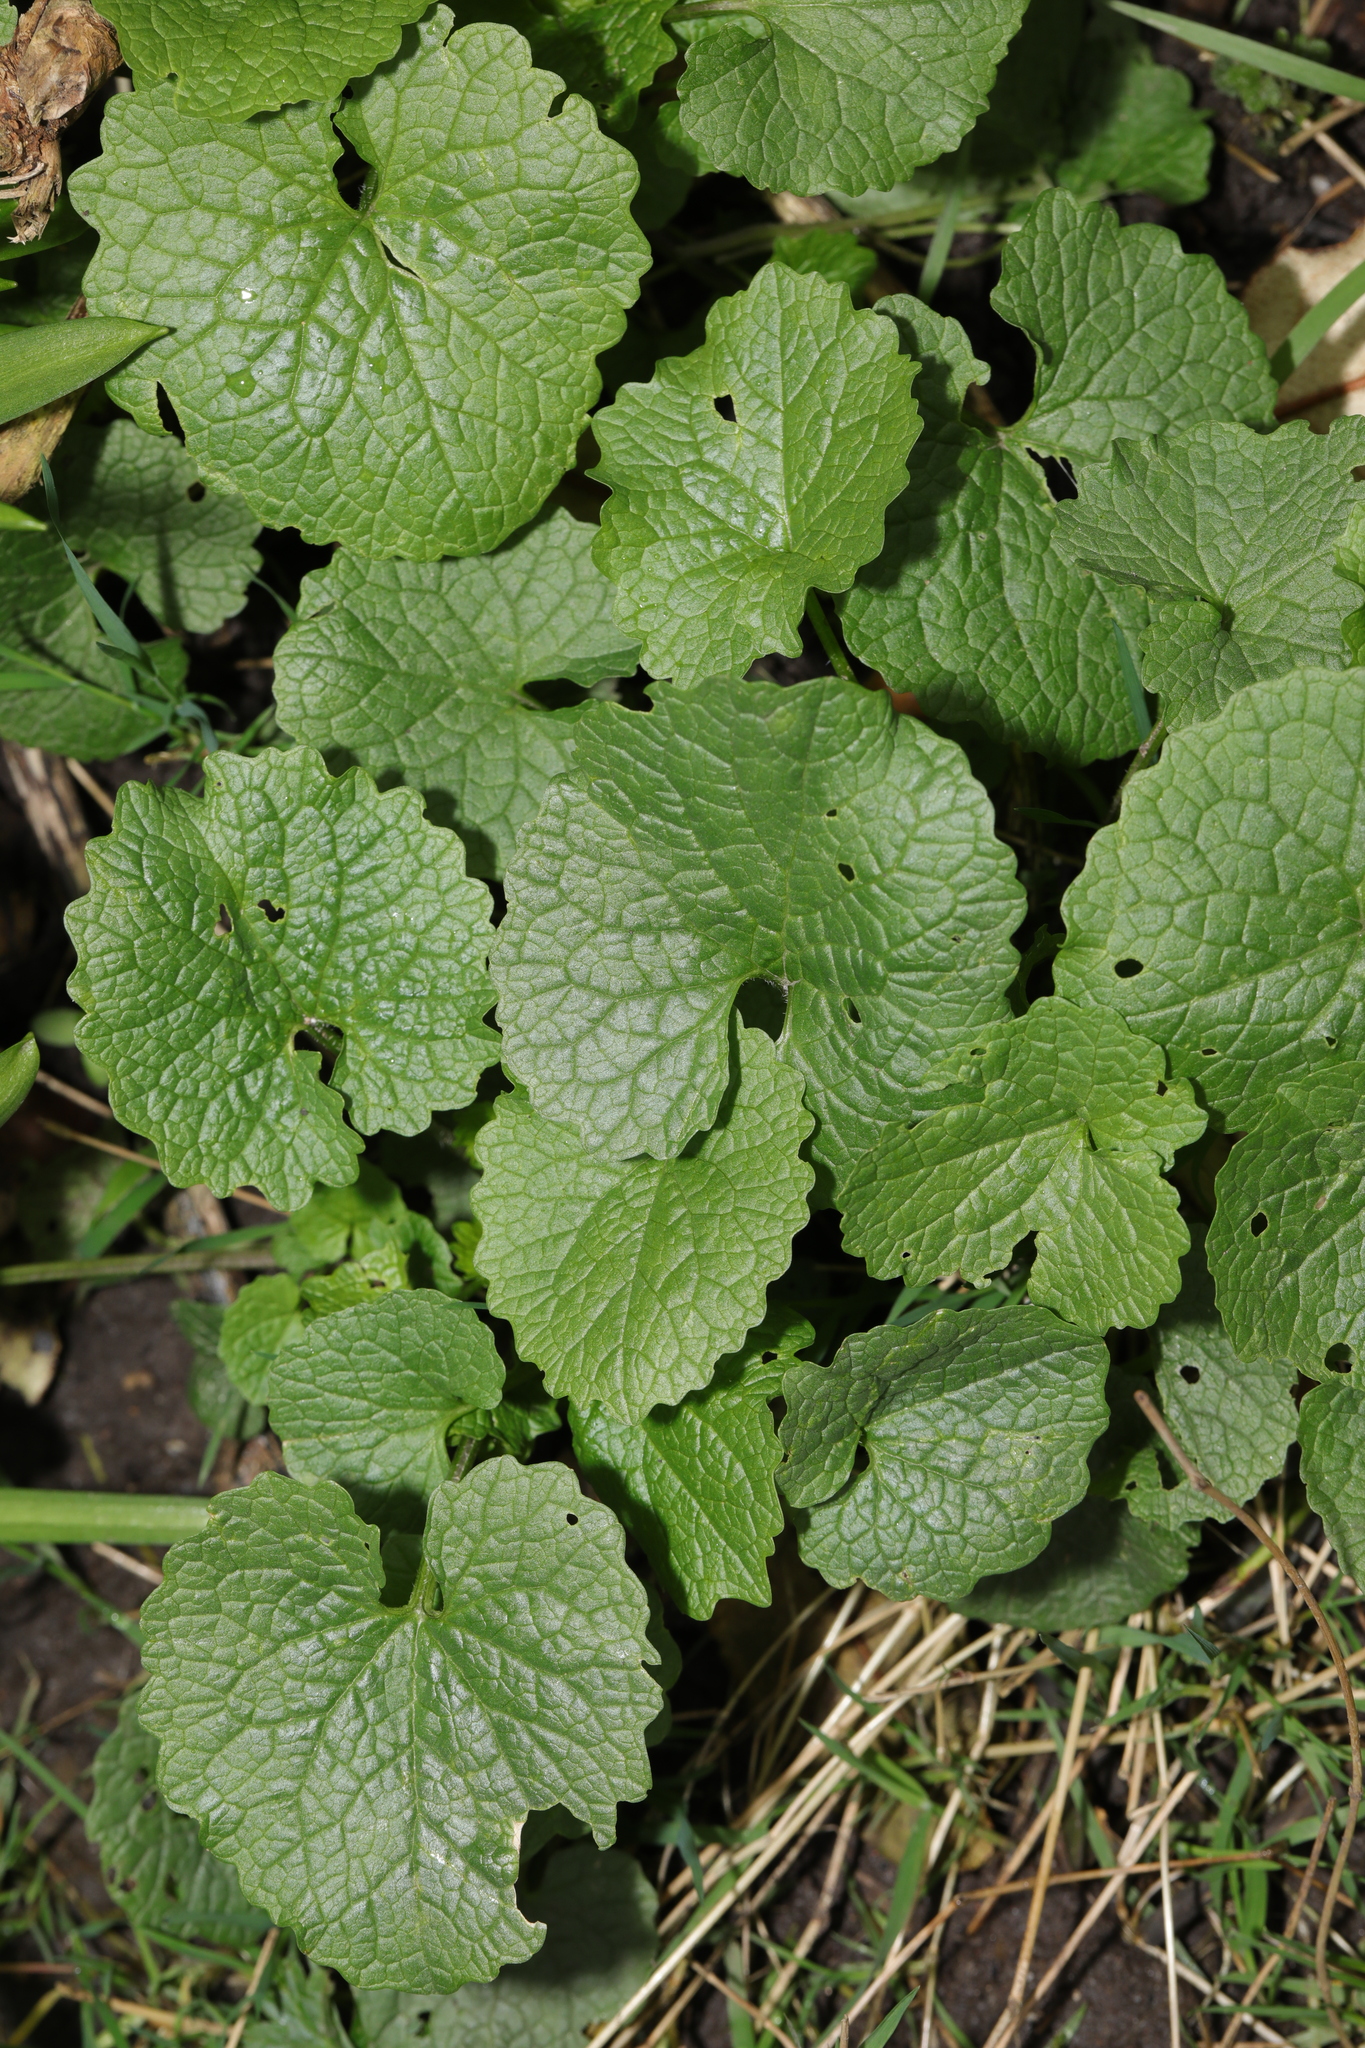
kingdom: Plantae
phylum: Tracheophyta
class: Magnoliopsida
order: Brassicales
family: Brassicaceae
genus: Alliaria
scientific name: Alliaria petiolata
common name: Garlic mustard
